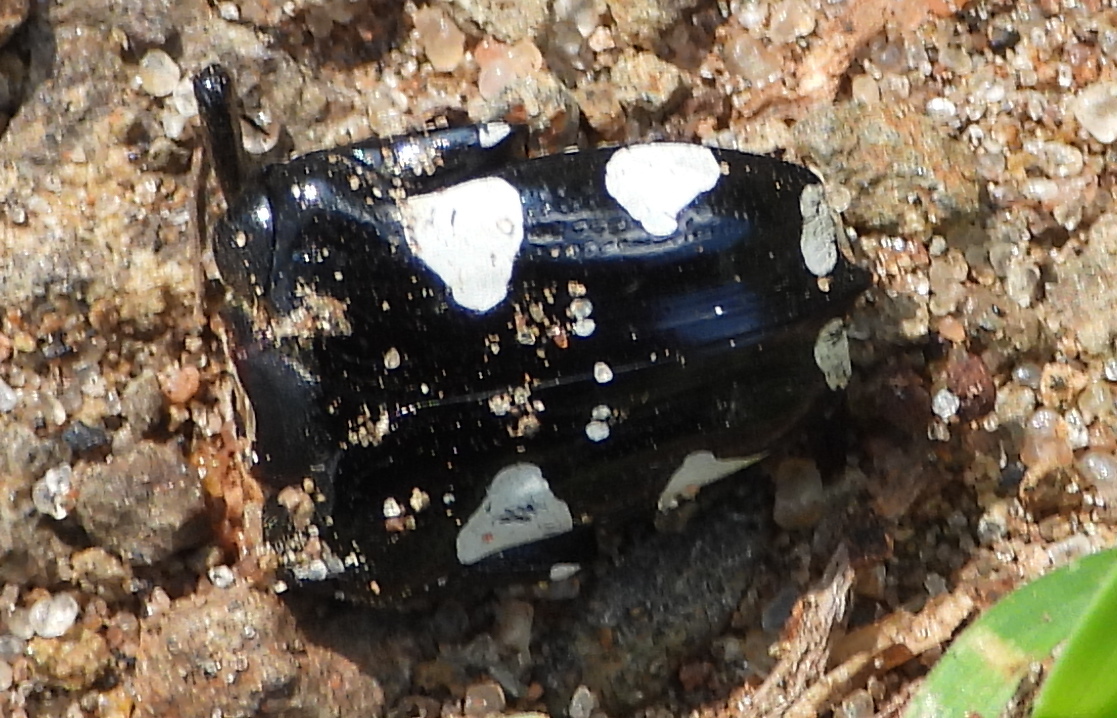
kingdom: Animalia
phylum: Arthropoda
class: Insecta
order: Coleoptera
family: Scarabaeidae
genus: Mausoleopsis
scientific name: Mausoleopsis amabilis
